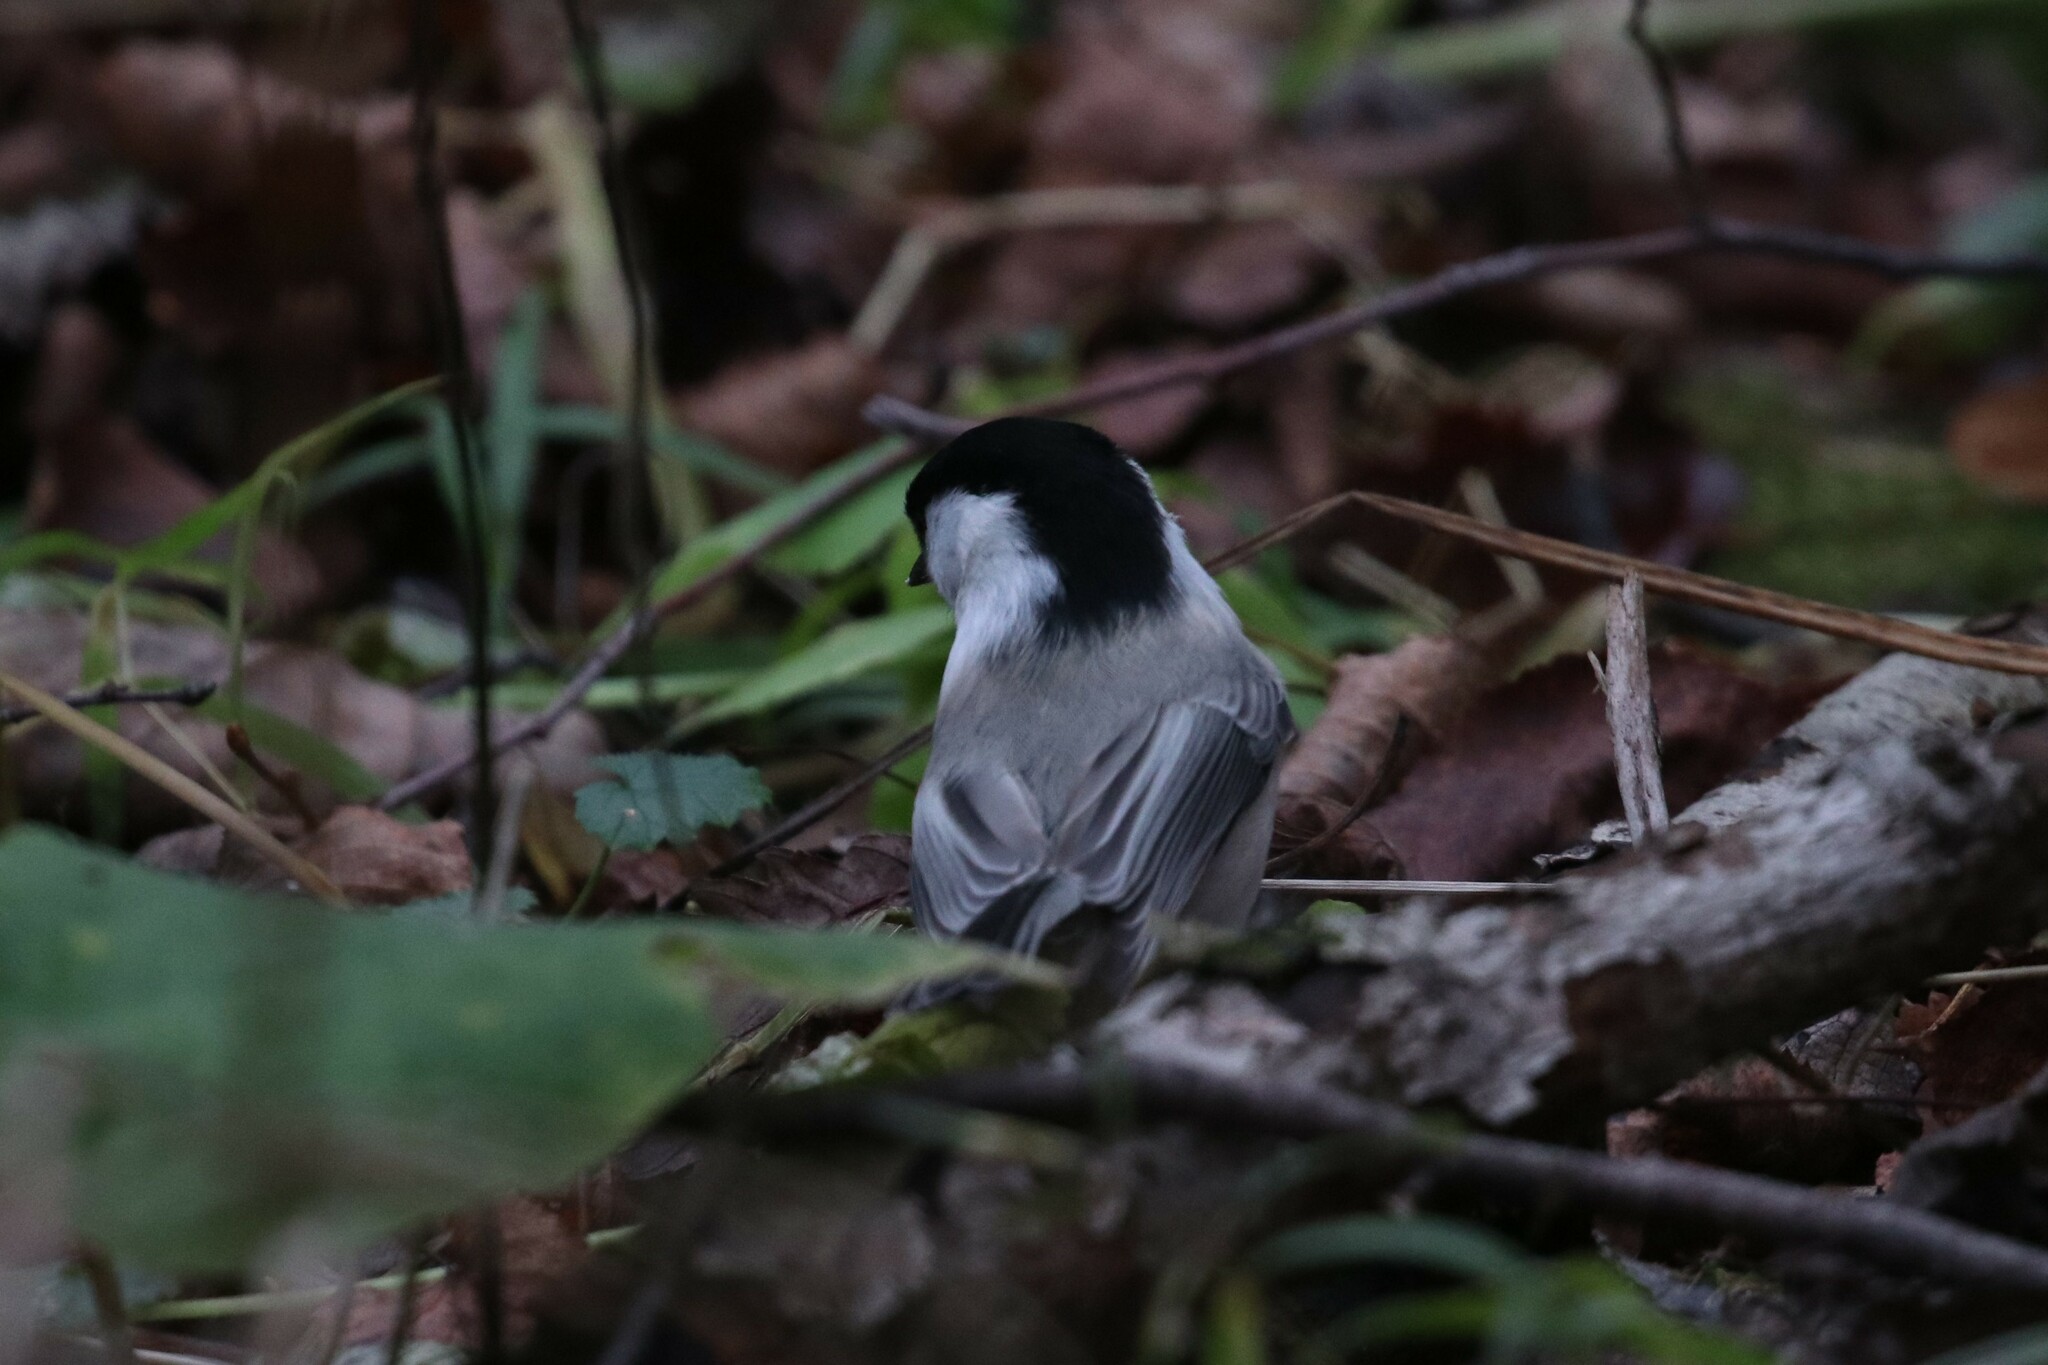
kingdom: Animalia
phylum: Chordata
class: Aves
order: Passeriformes
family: Paridae
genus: Poecile
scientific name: Poecile montanus
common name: Willow tit
